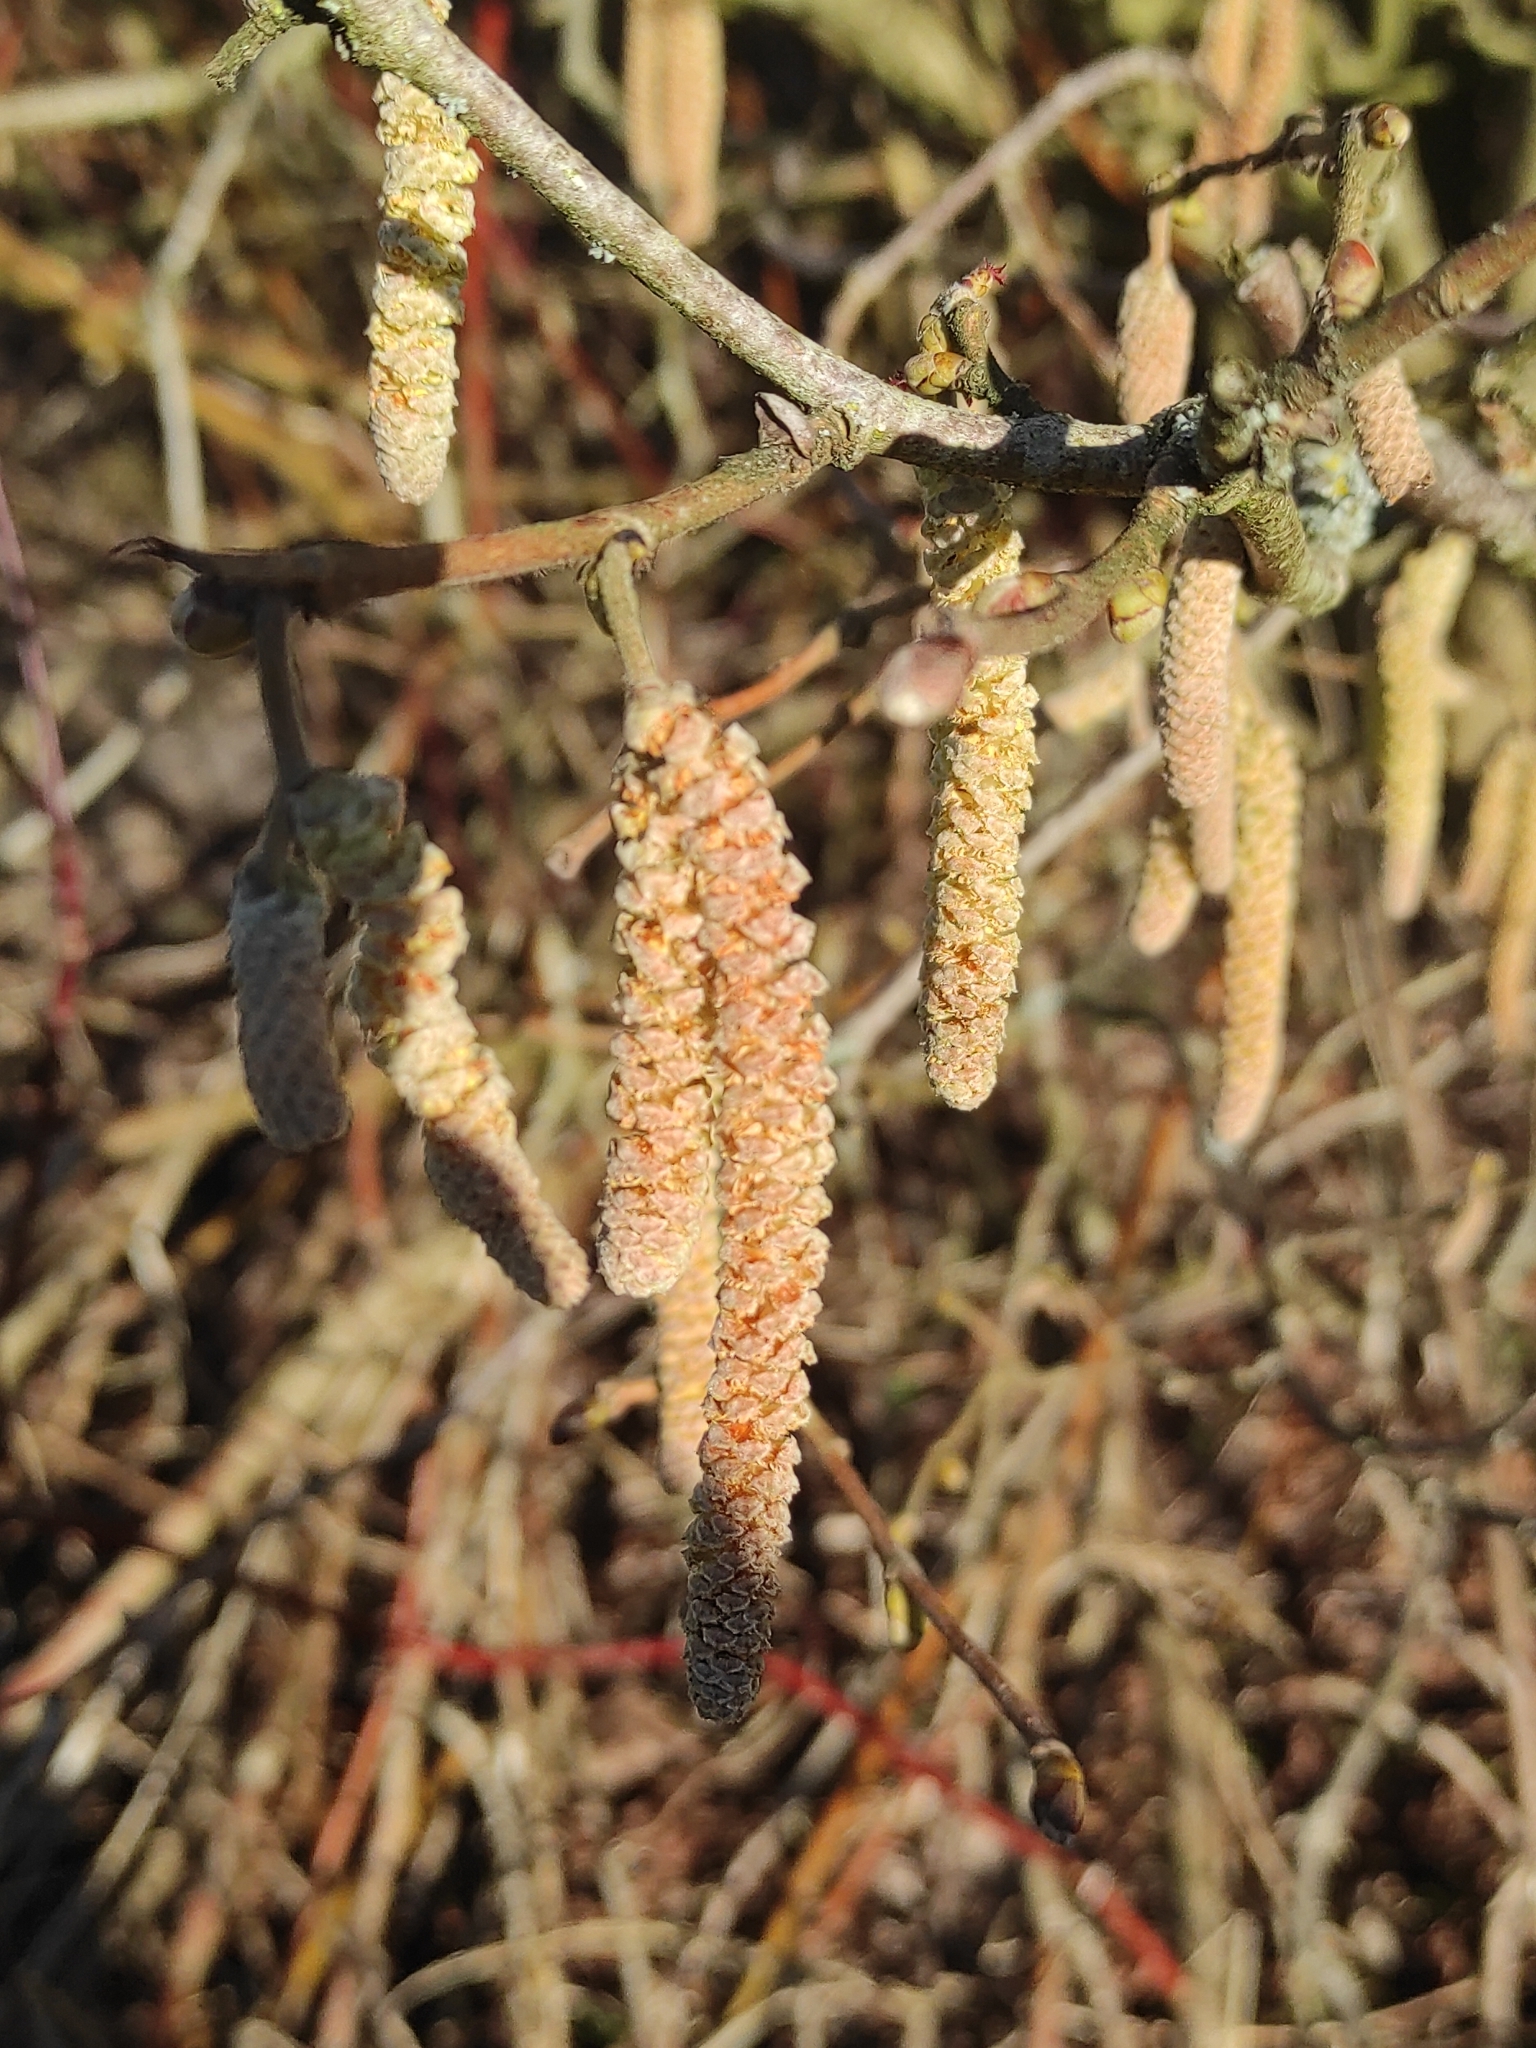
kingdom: Plantae
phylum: Tracheophyta
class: Magnoliopsida
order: Fagales
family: Betulaceae
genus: Corylus
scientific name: Corylus avellana
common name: European hazel
